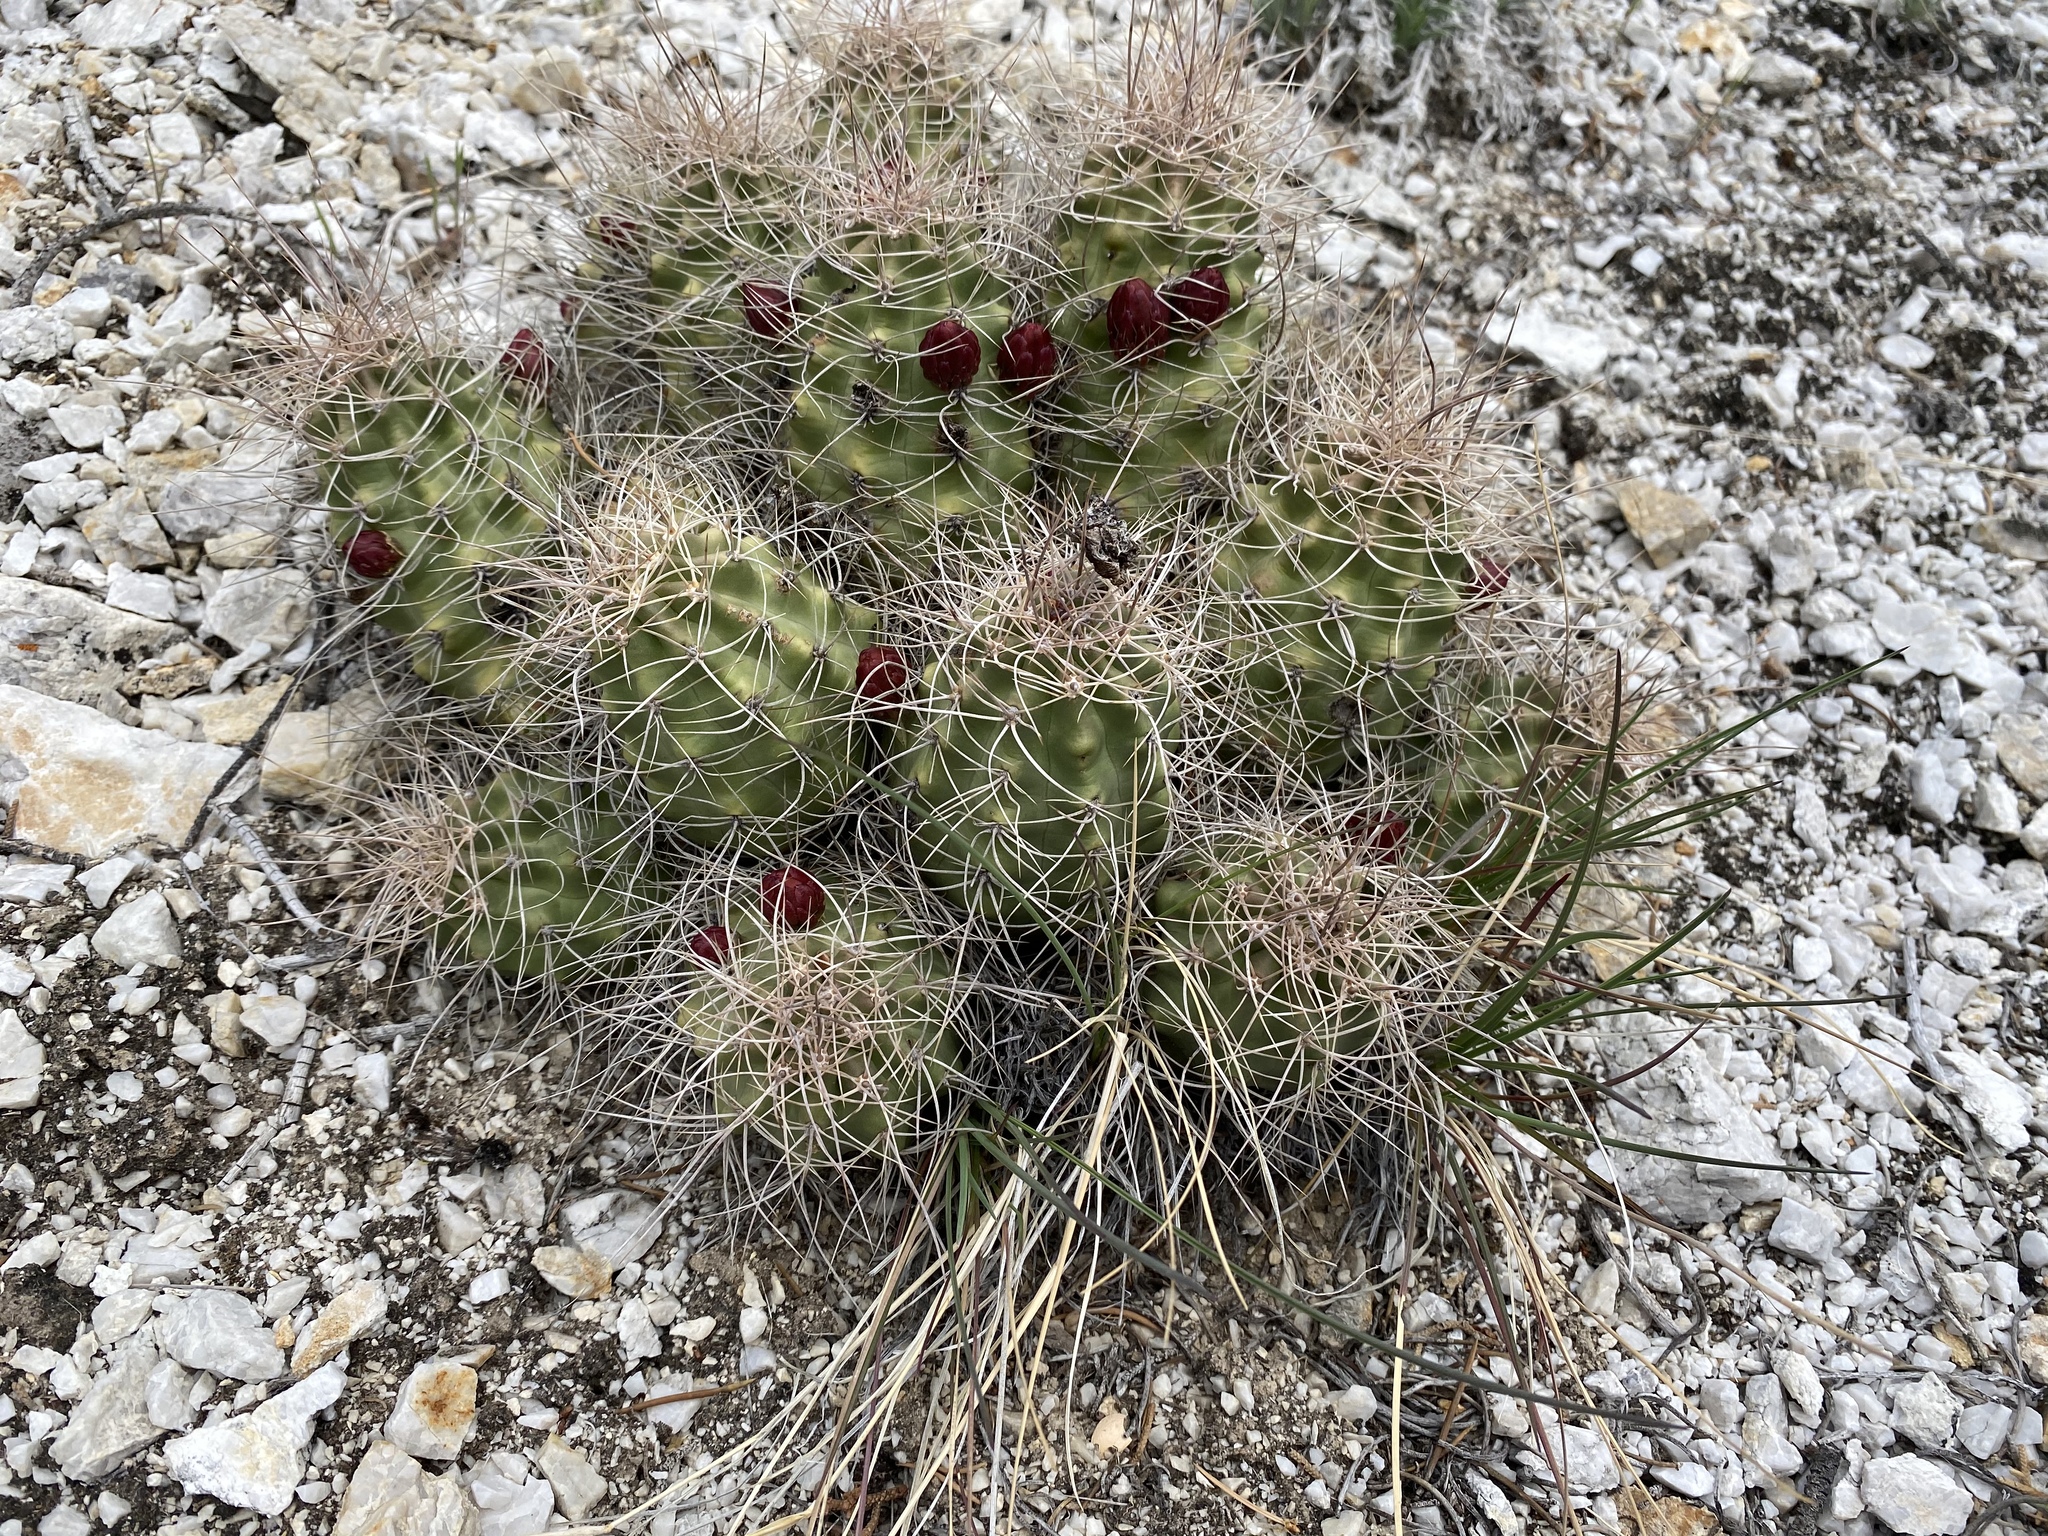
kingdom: Plantae
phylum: Tracheophyta
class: Magnoliopsida
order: Caryophyllales
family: Cactaceae
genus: Echinocereus
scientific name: Echinocereus triglochidiatus
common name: Claretcup hedgehog
